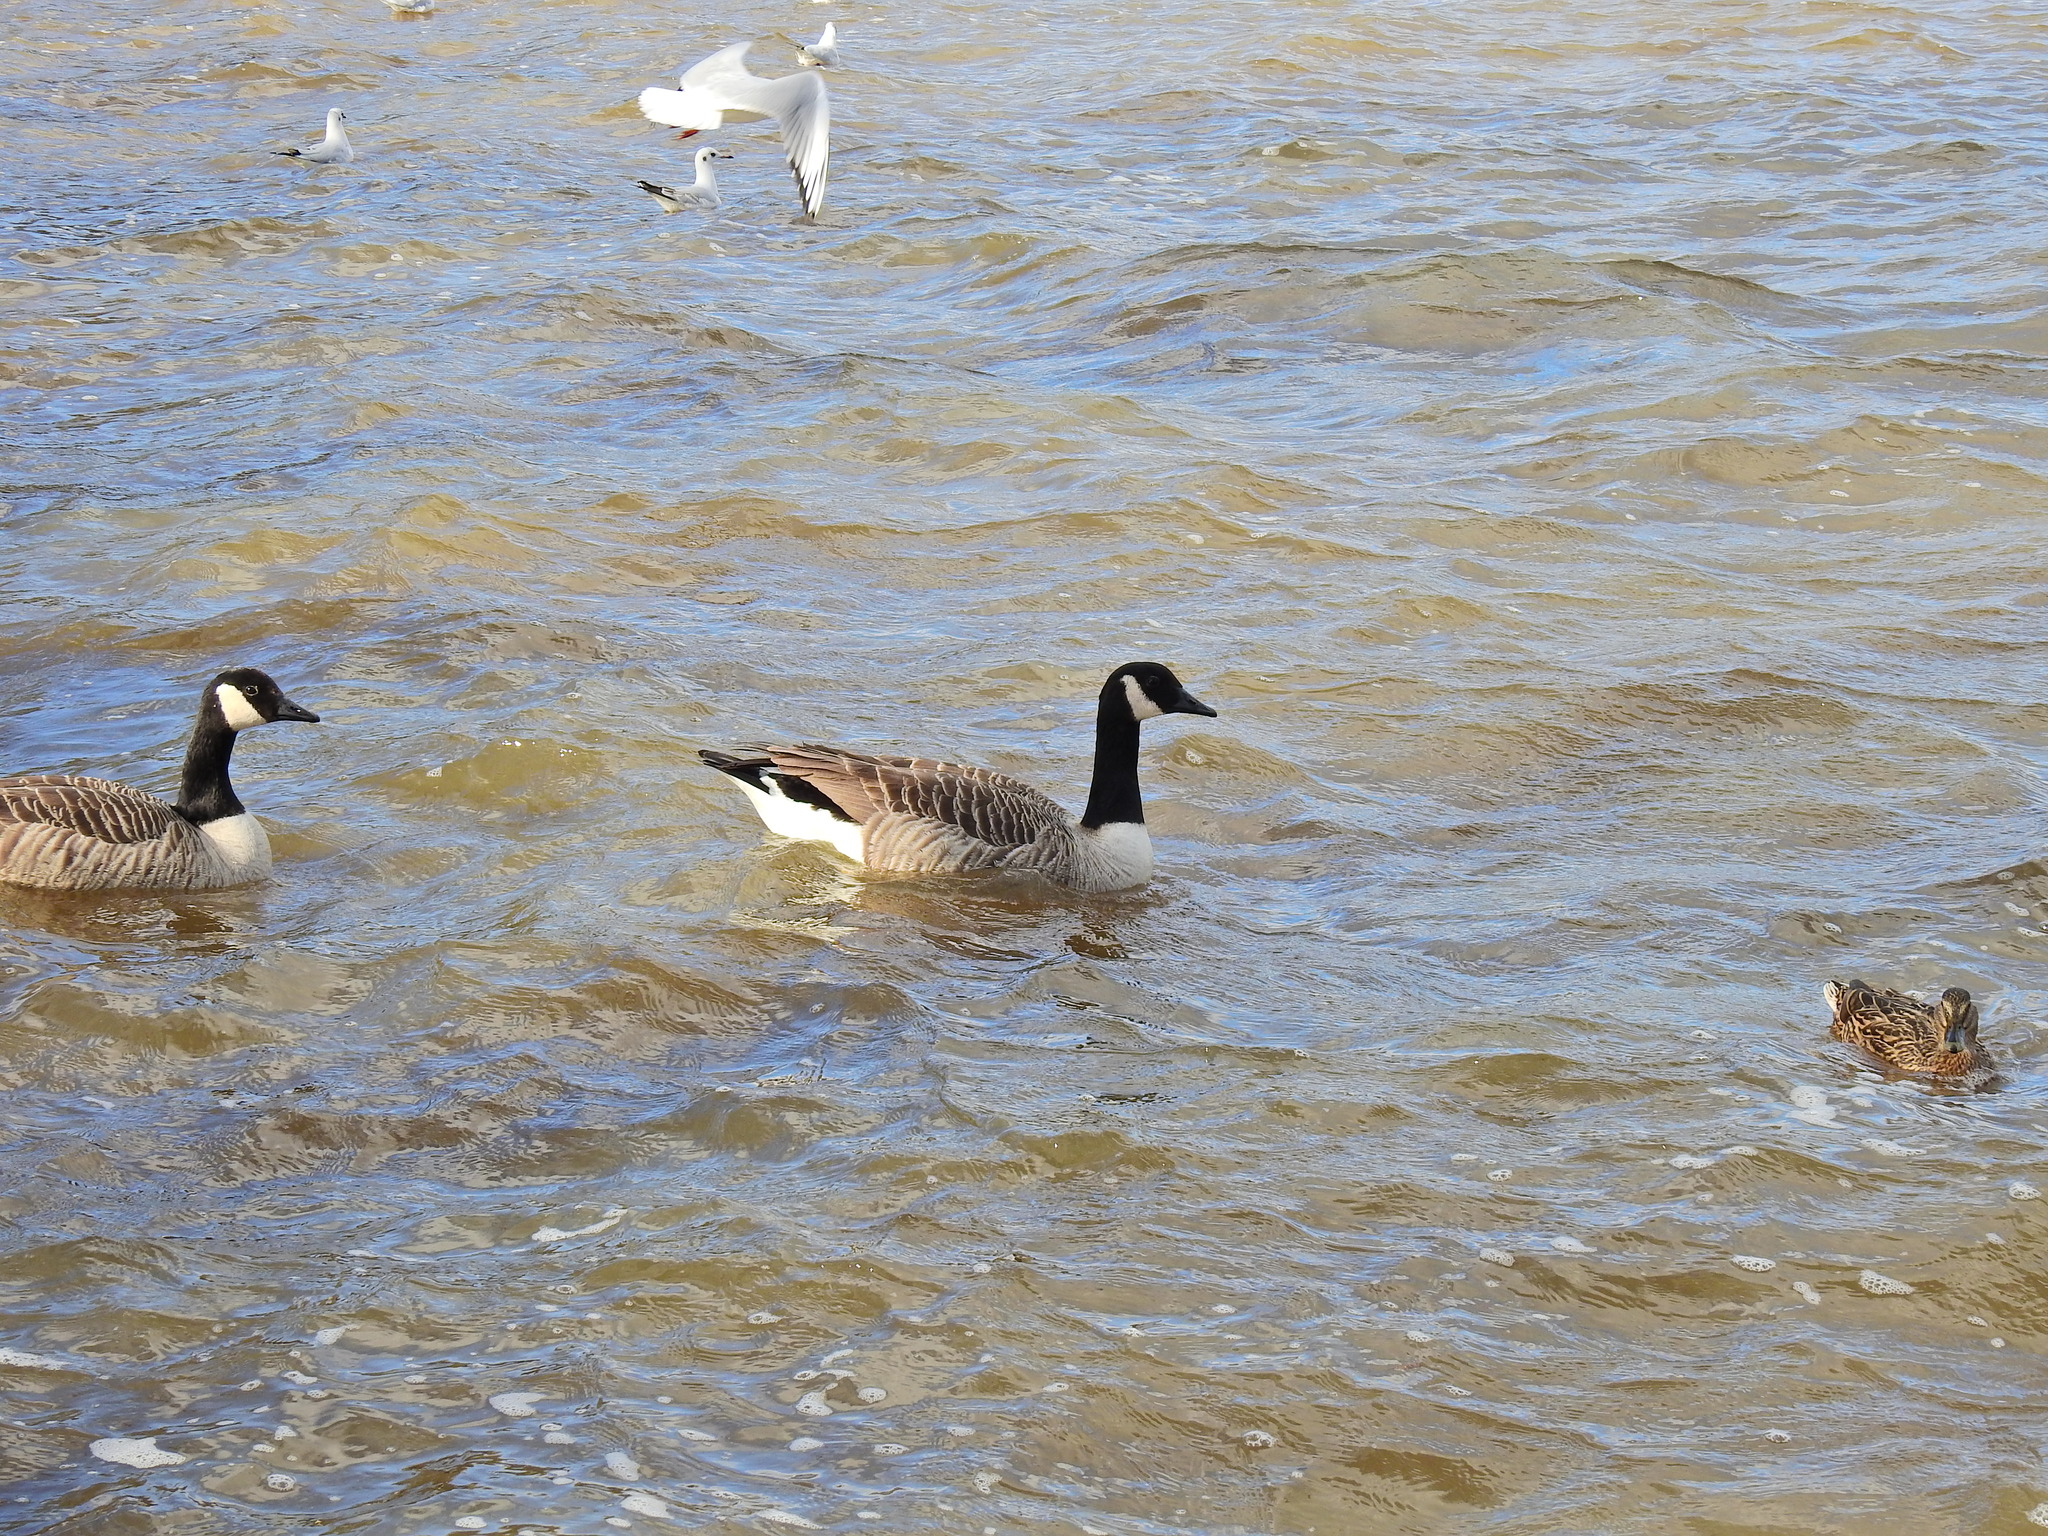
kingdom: Animalia
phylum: Chordata
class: Aves
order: Anseriformes
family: Anatidae
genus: Branta
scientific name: Branta canadensis
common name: Canada goose
